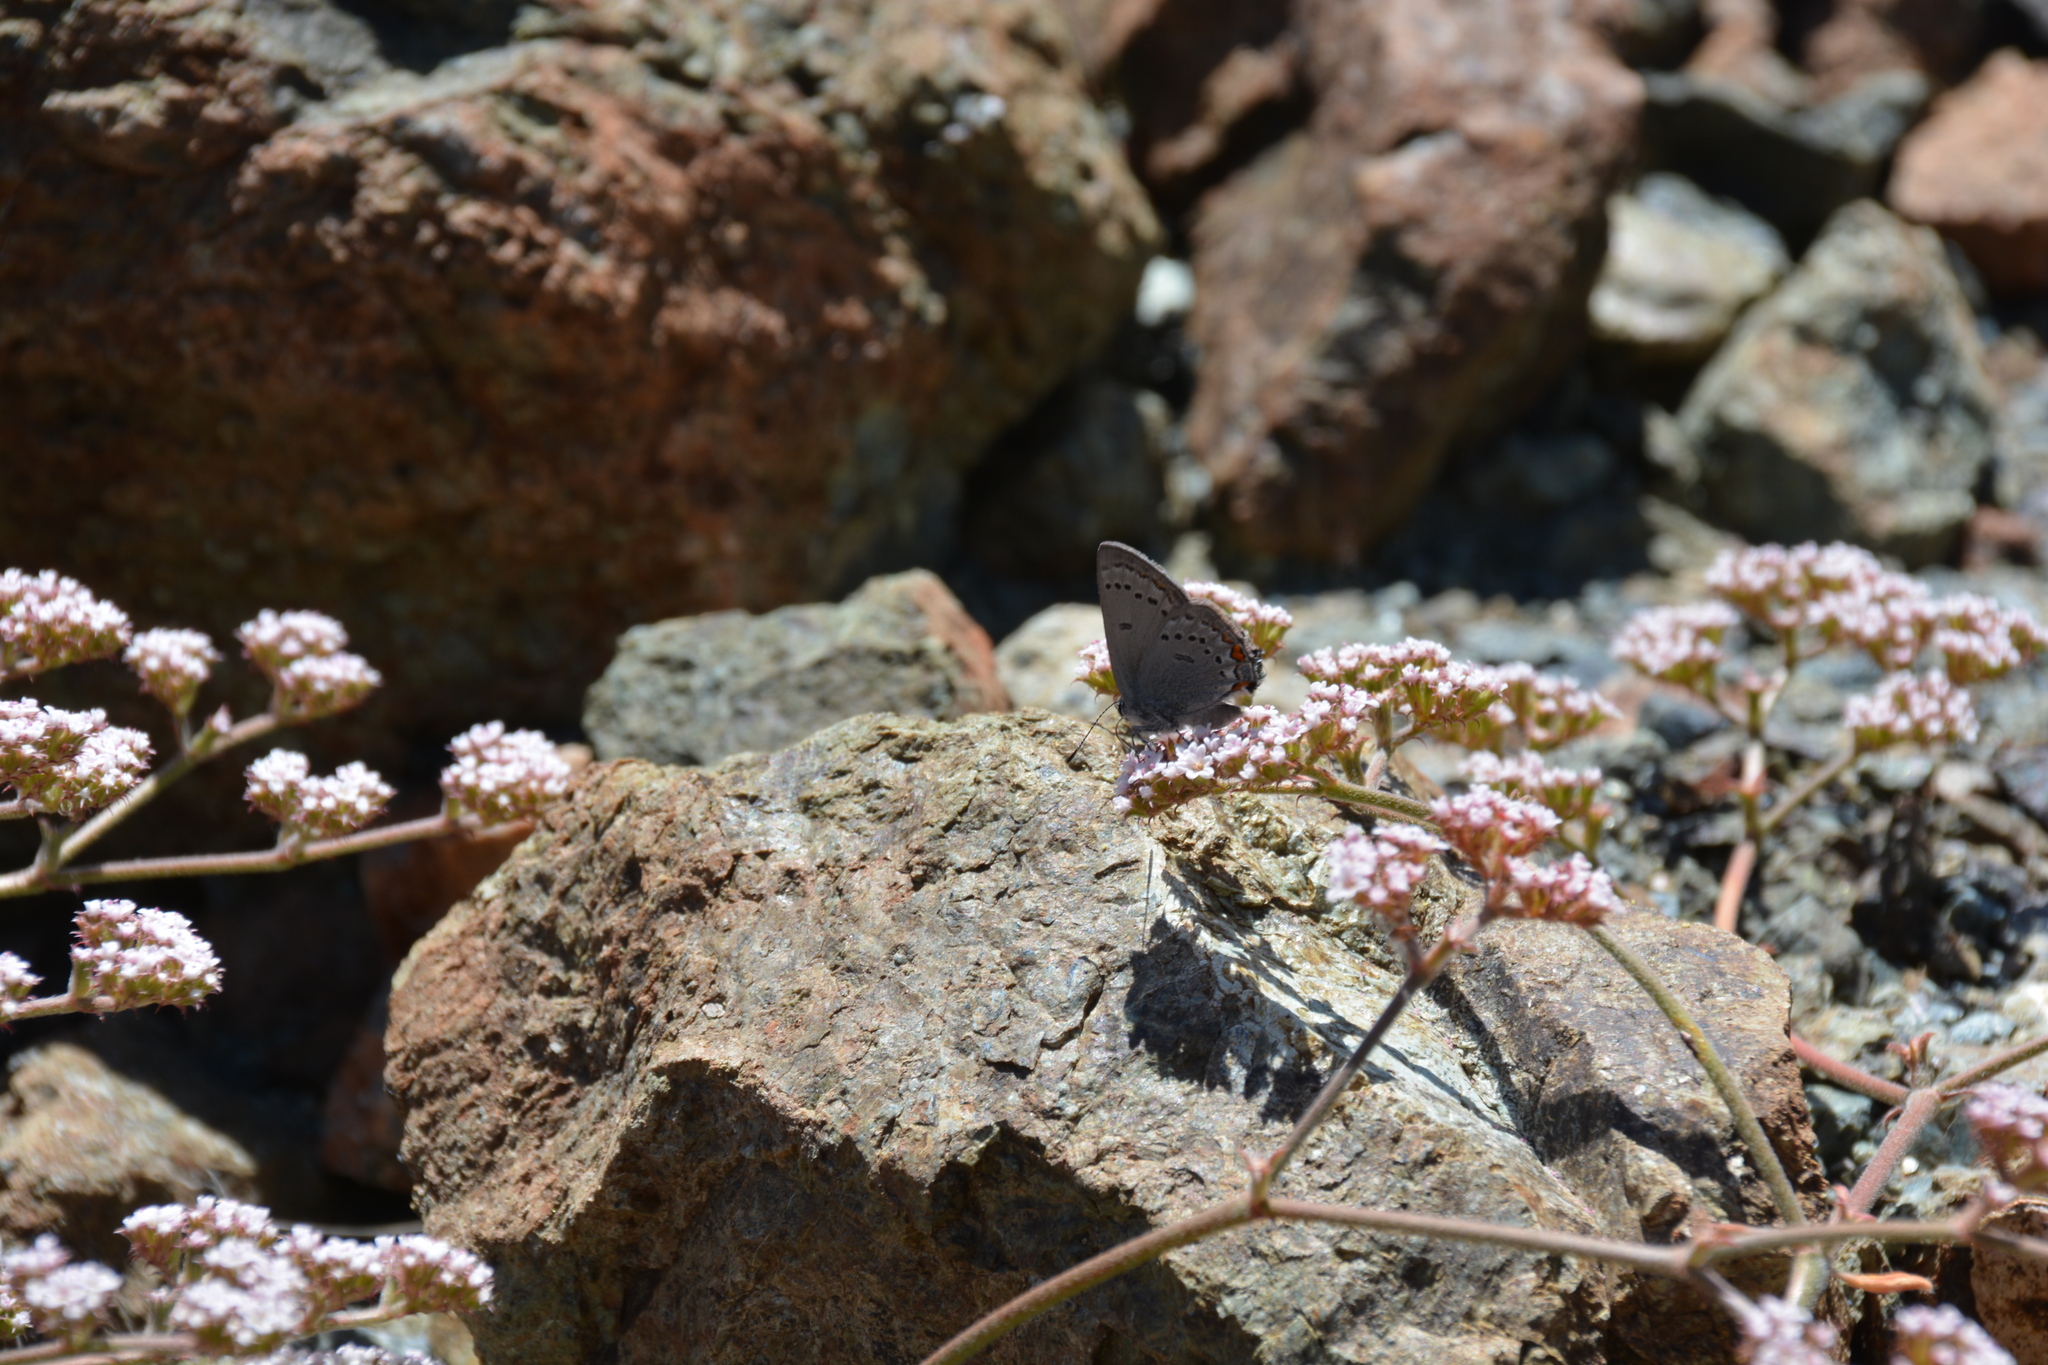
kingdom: Animalia
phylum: Arthropoda
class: Insecta
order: Lepidoptera
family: Lycaenidae
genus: Strymon
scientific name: Strymon acadica
